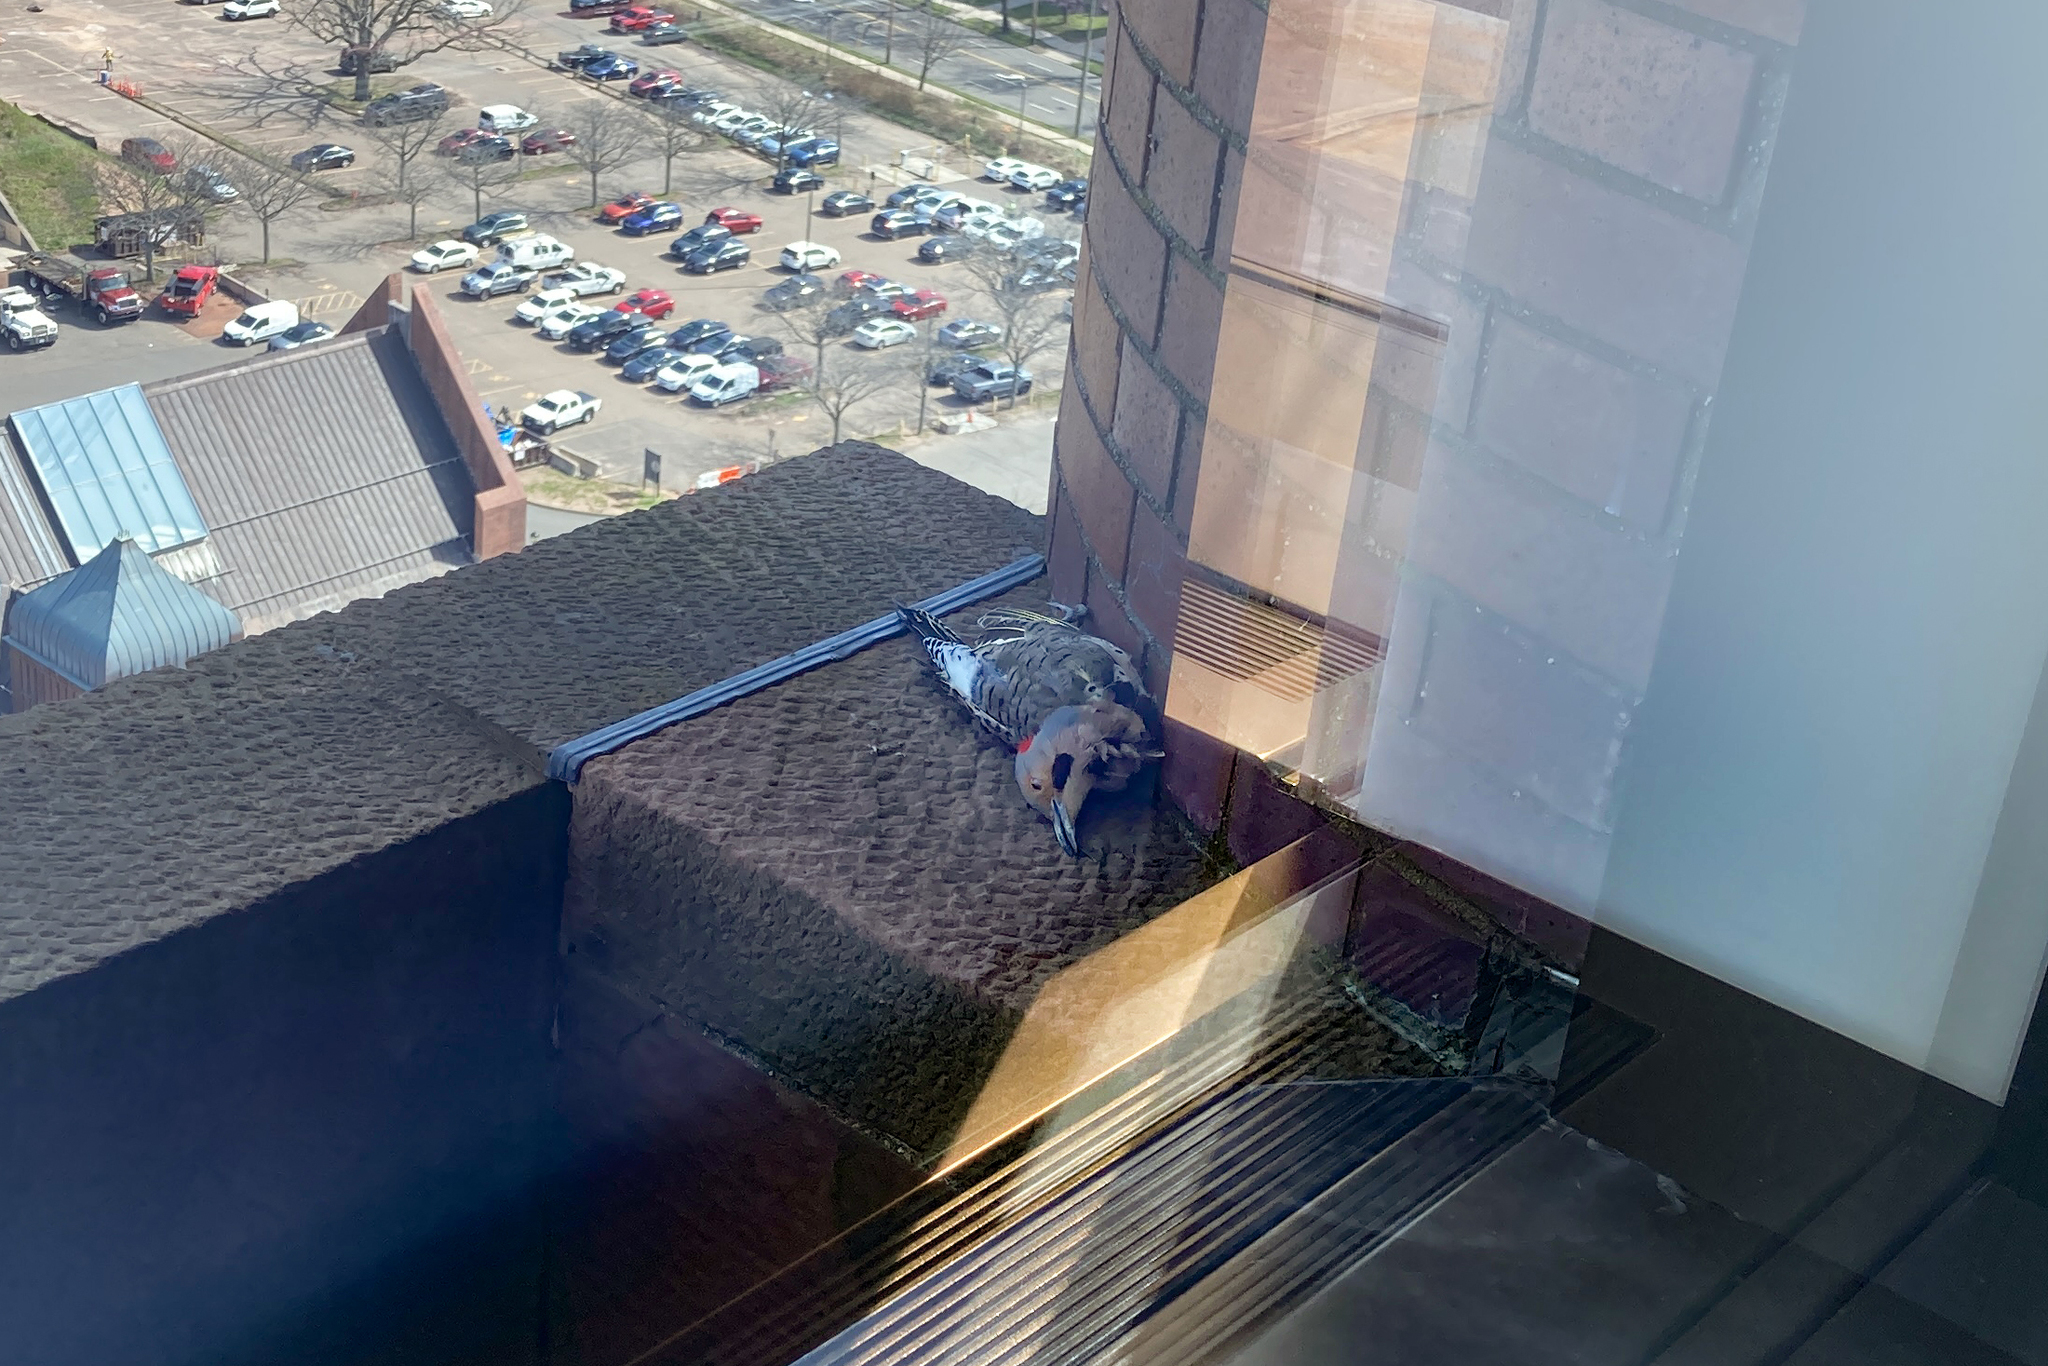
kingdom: Animalia
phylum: Chordata
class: Aves
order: Piciformes
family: Picidae
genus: Colaptes
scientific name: Colaptes auratus
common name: Northern flicker
